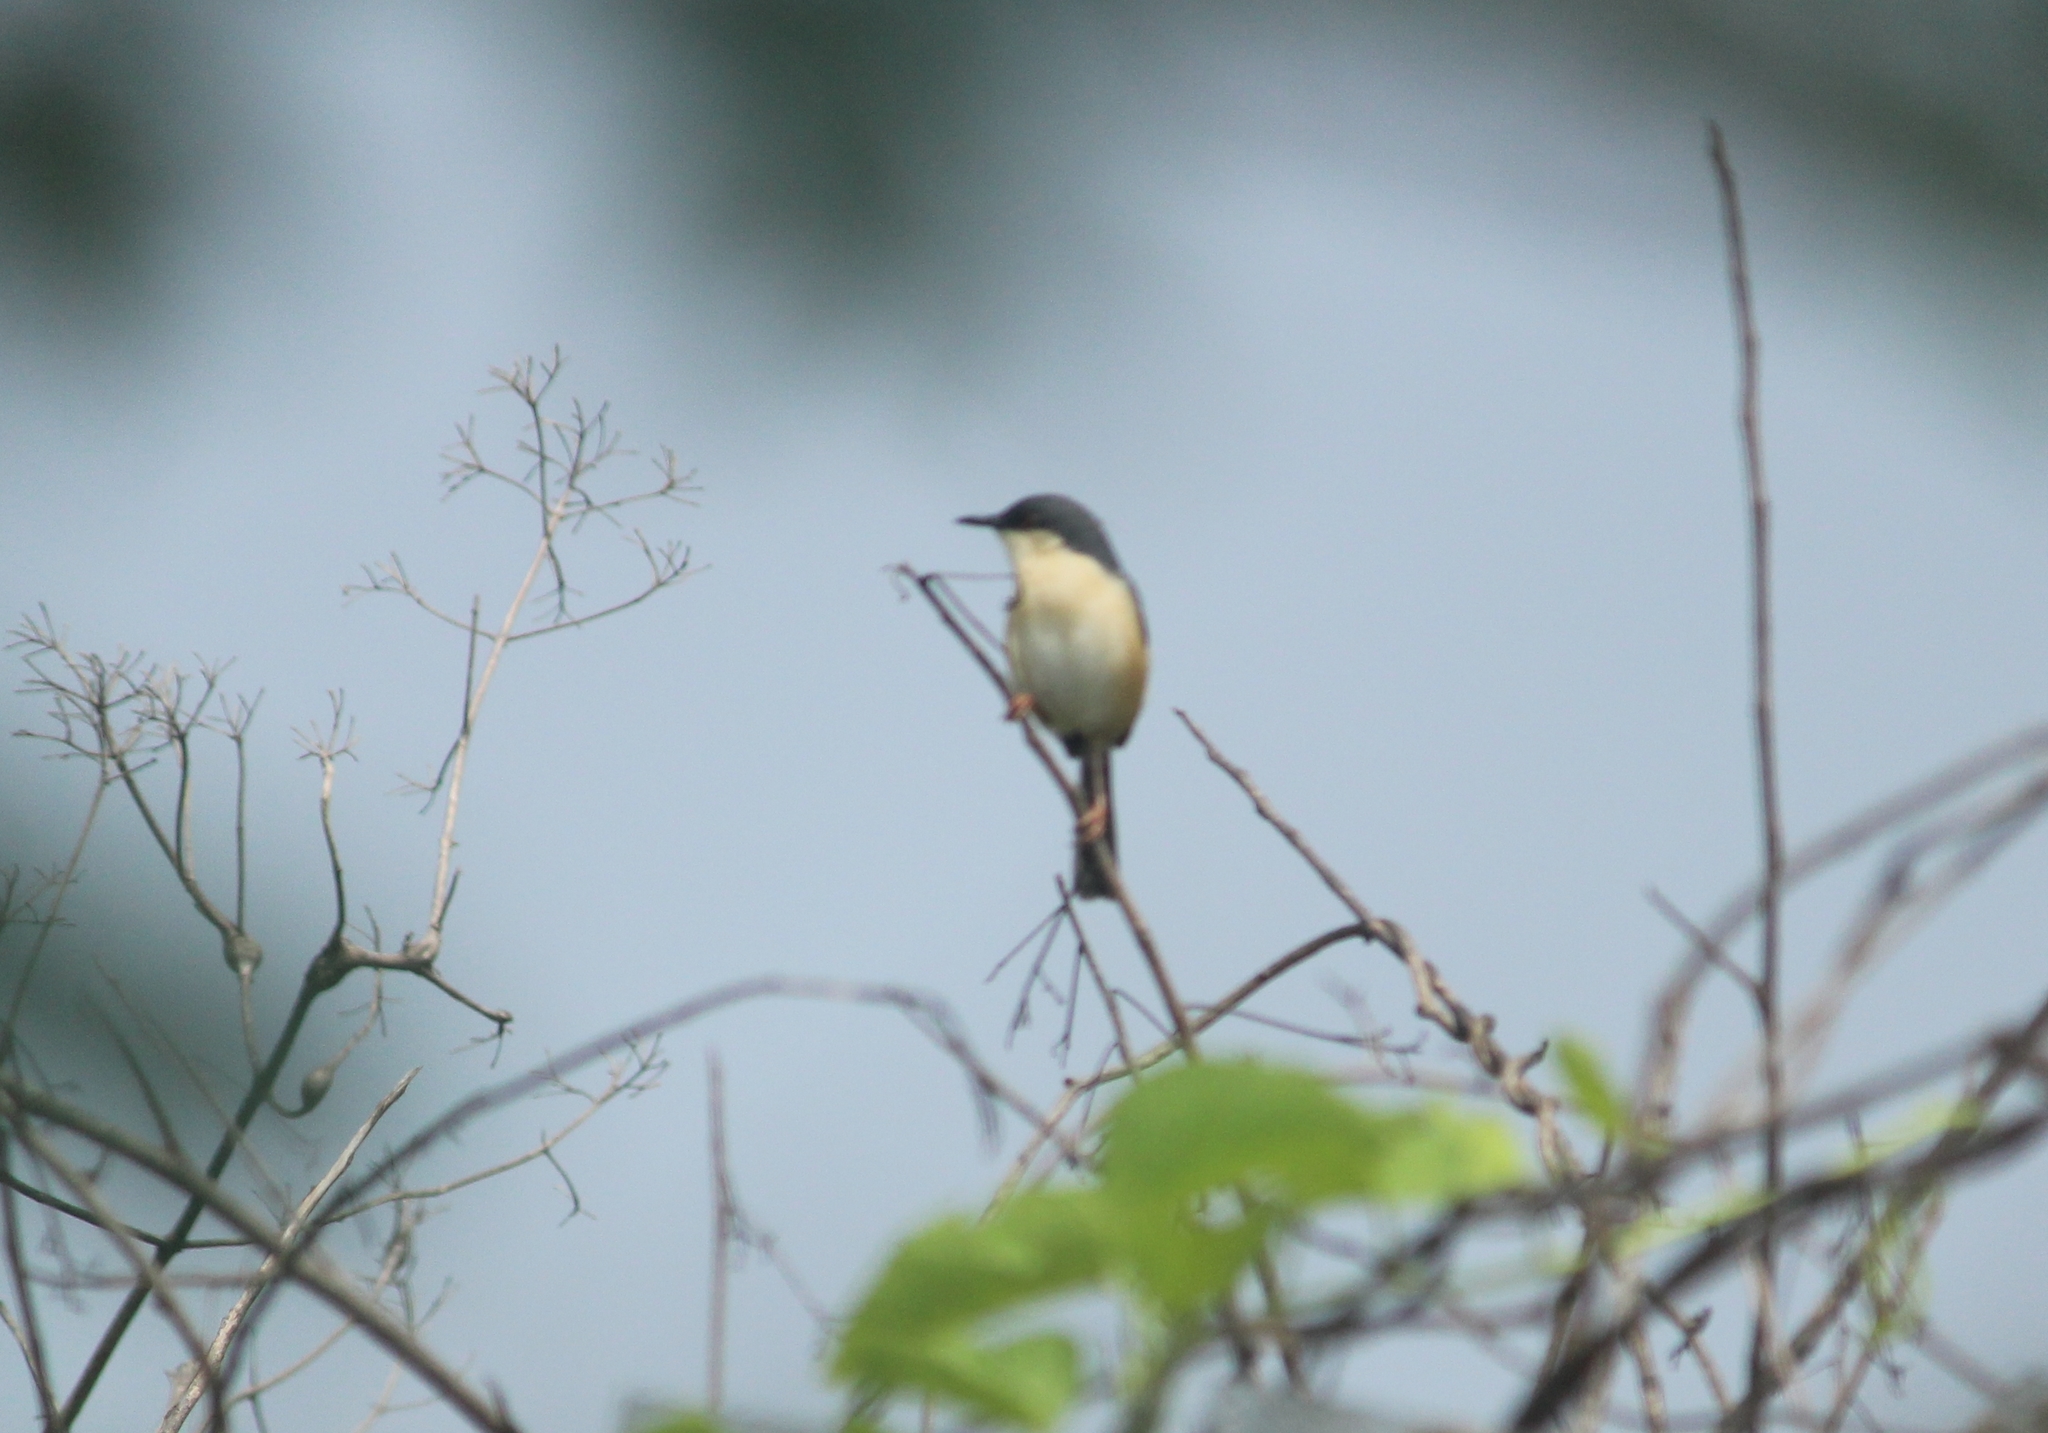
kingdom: Animalia
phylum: Chordata
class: Aves
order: Passeriformes
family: Cisticolidae
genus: Prinia
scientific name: Prinia socialis
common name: Ashy prinia
